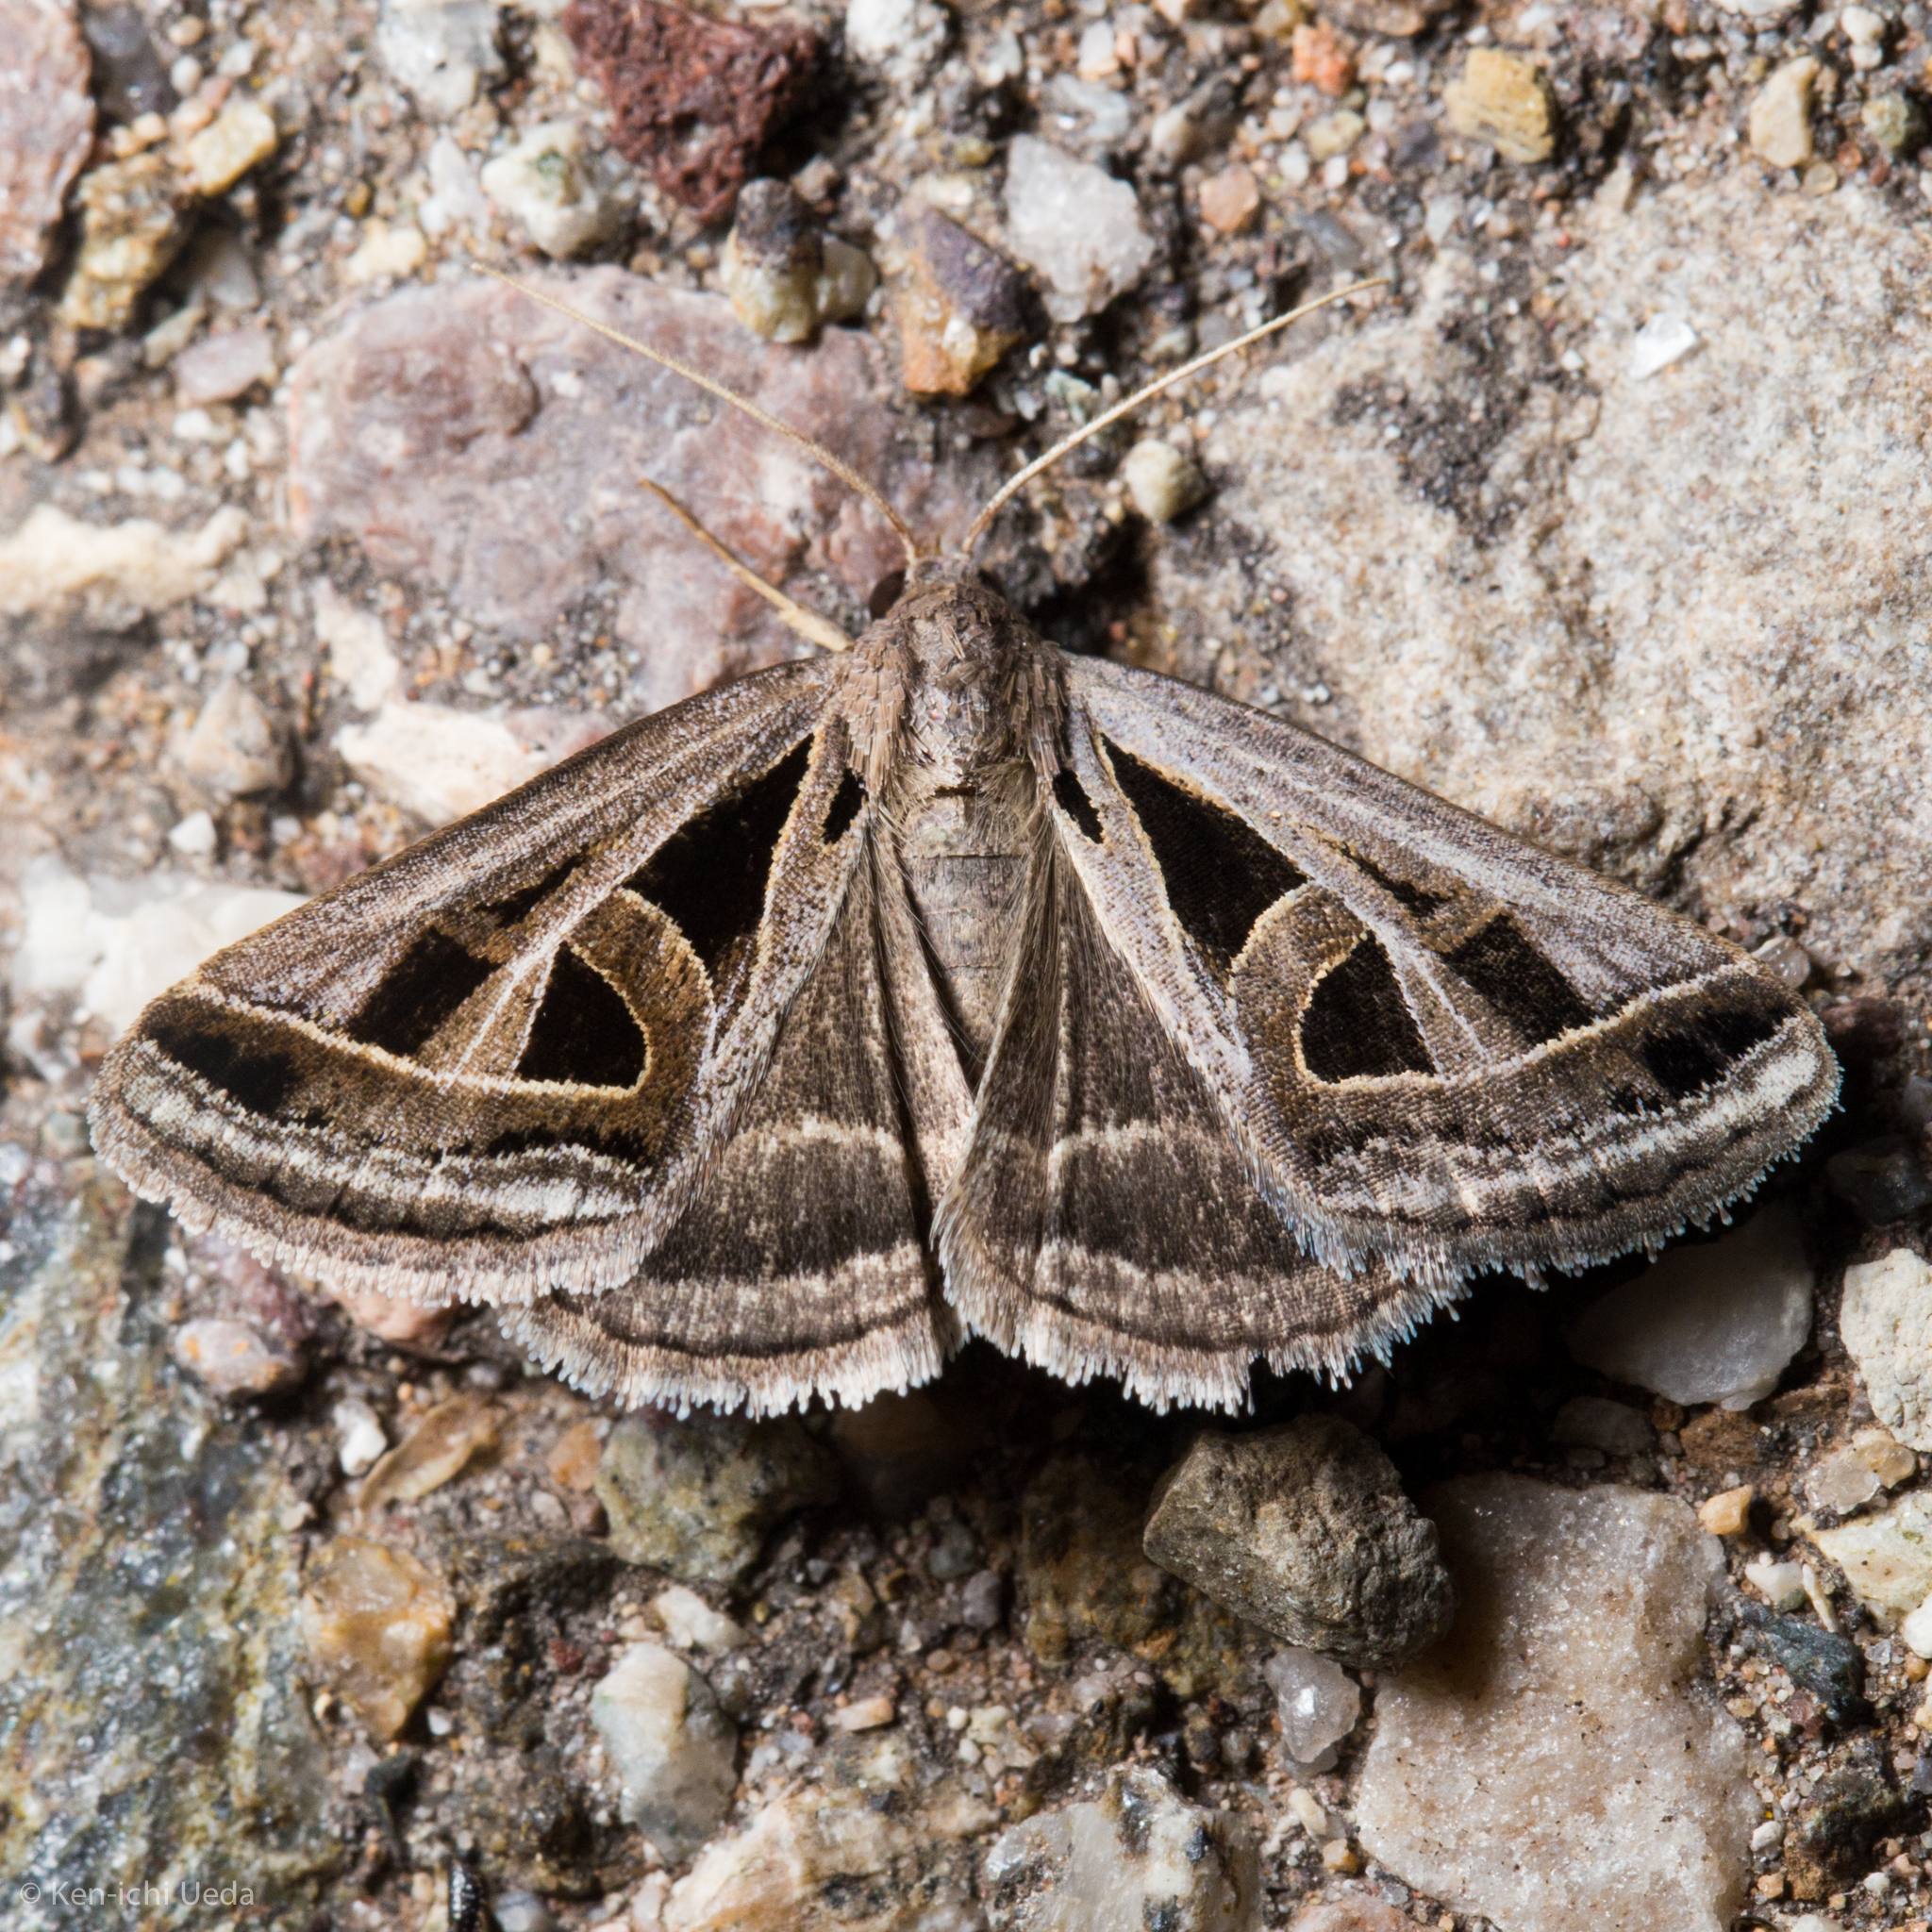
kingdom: Animalia
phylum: Arthropoda
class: Insecta
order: Lepidoptera
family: Erebidae
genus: Callistege
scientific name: Callistege diagonalis
